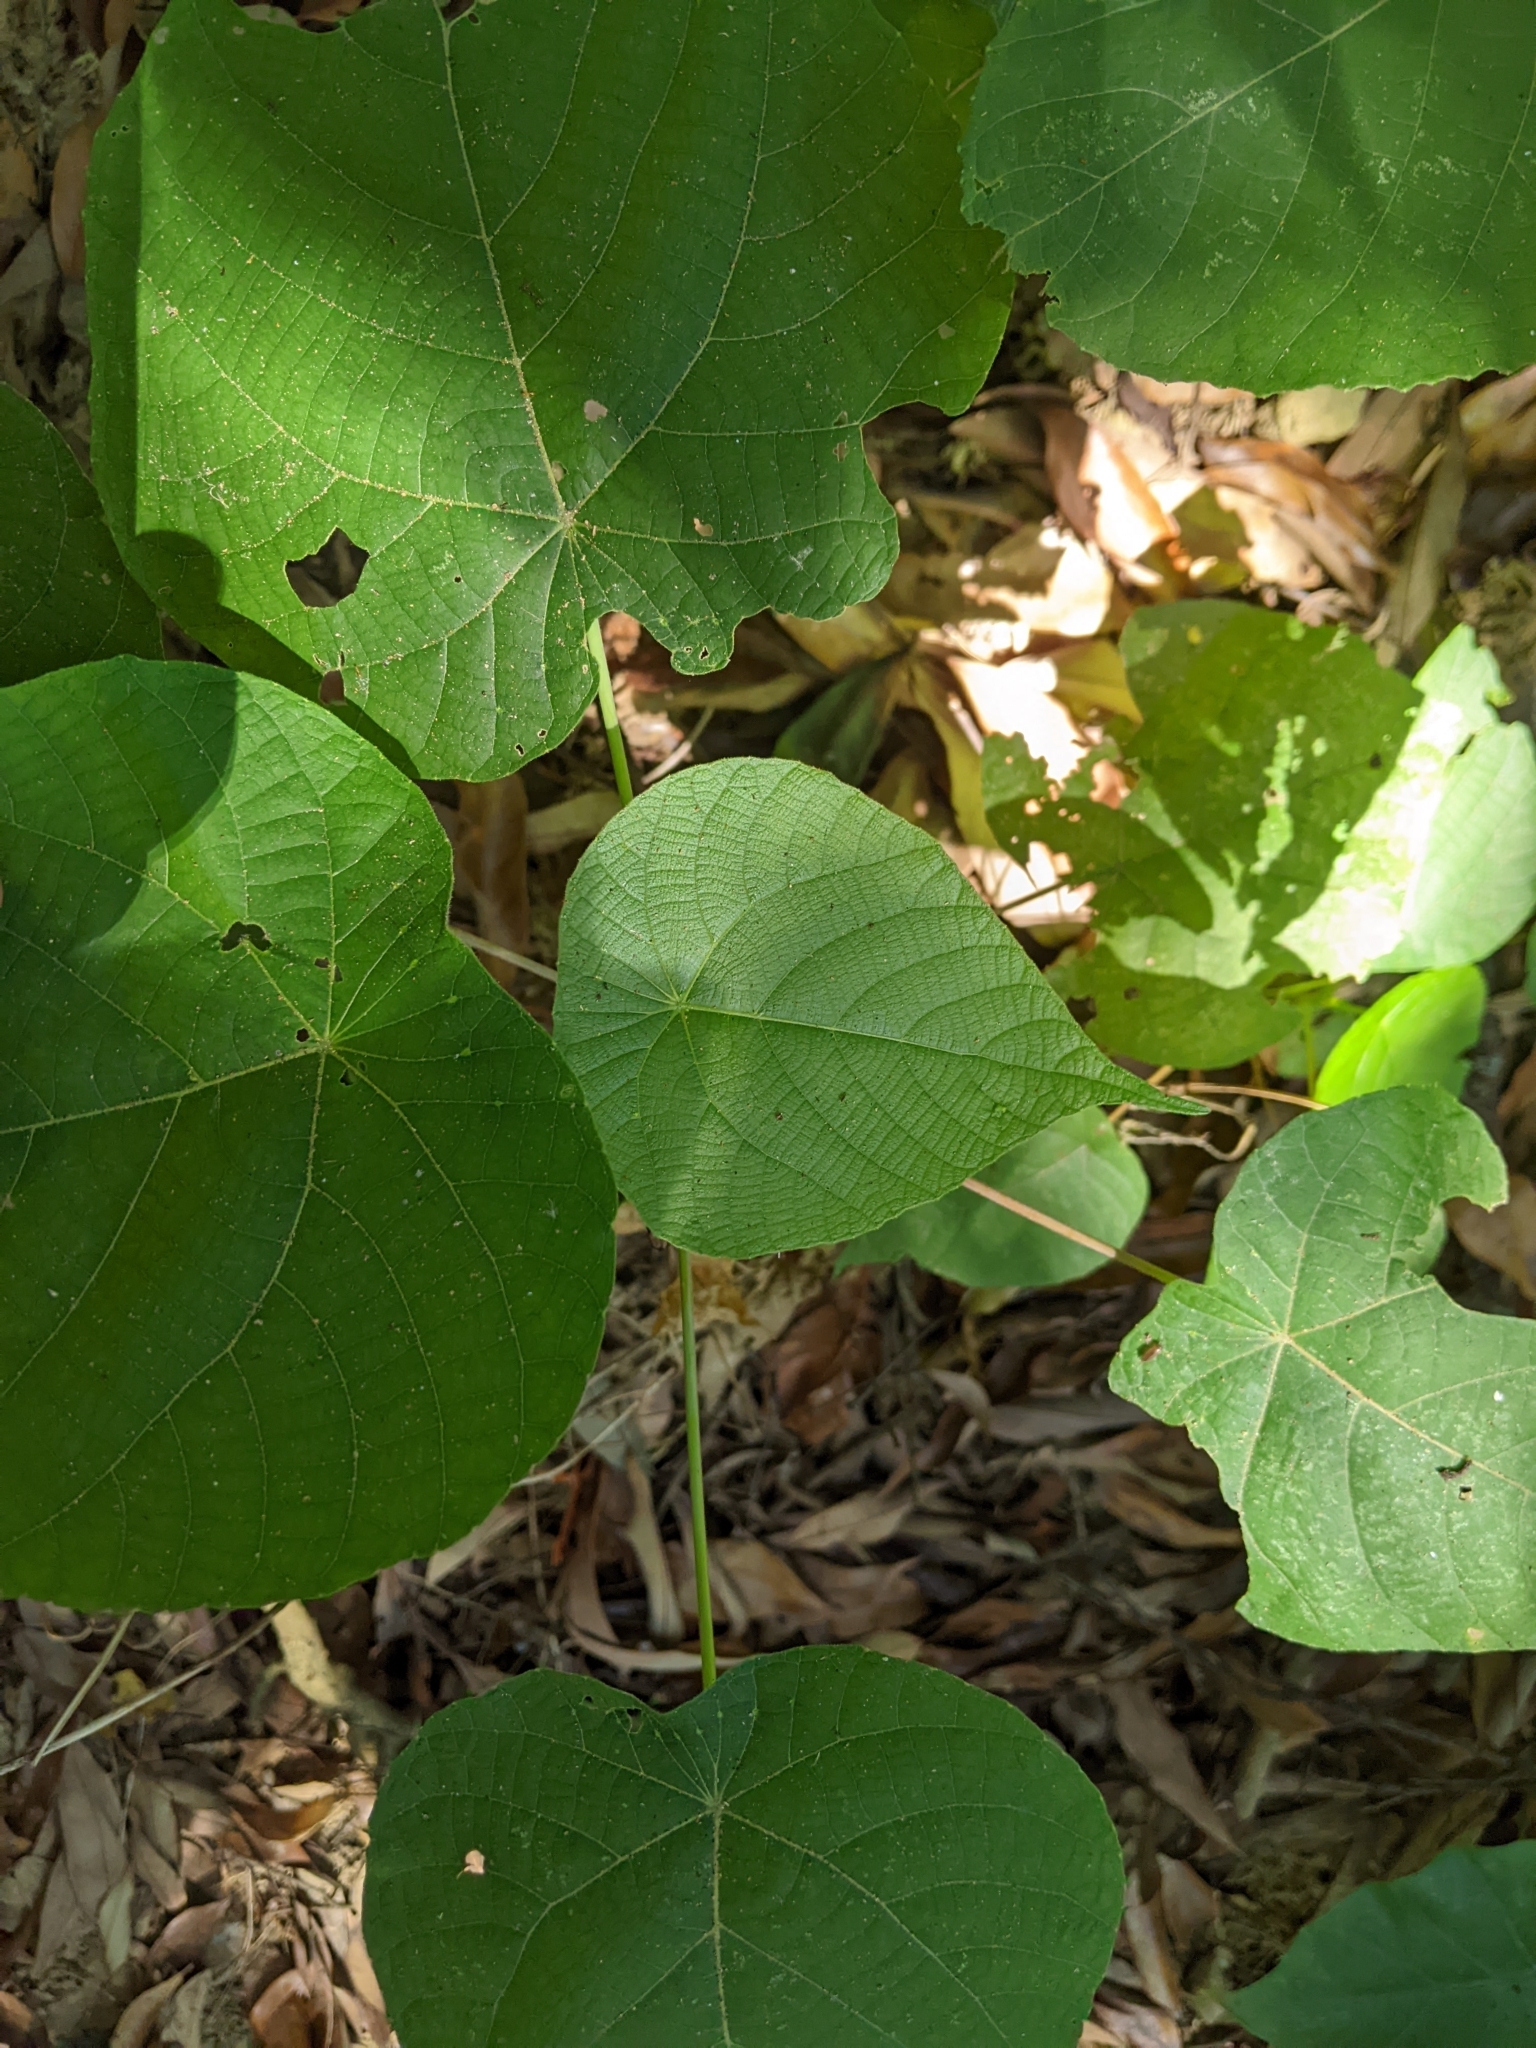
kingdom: Plantae
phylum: Tracheophyta
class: Magnoliopsida
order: Malpighiales
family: Euphorbiaceae
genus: Macaranga
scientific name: Macaranga tanarius
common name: Parasol leaf tree
